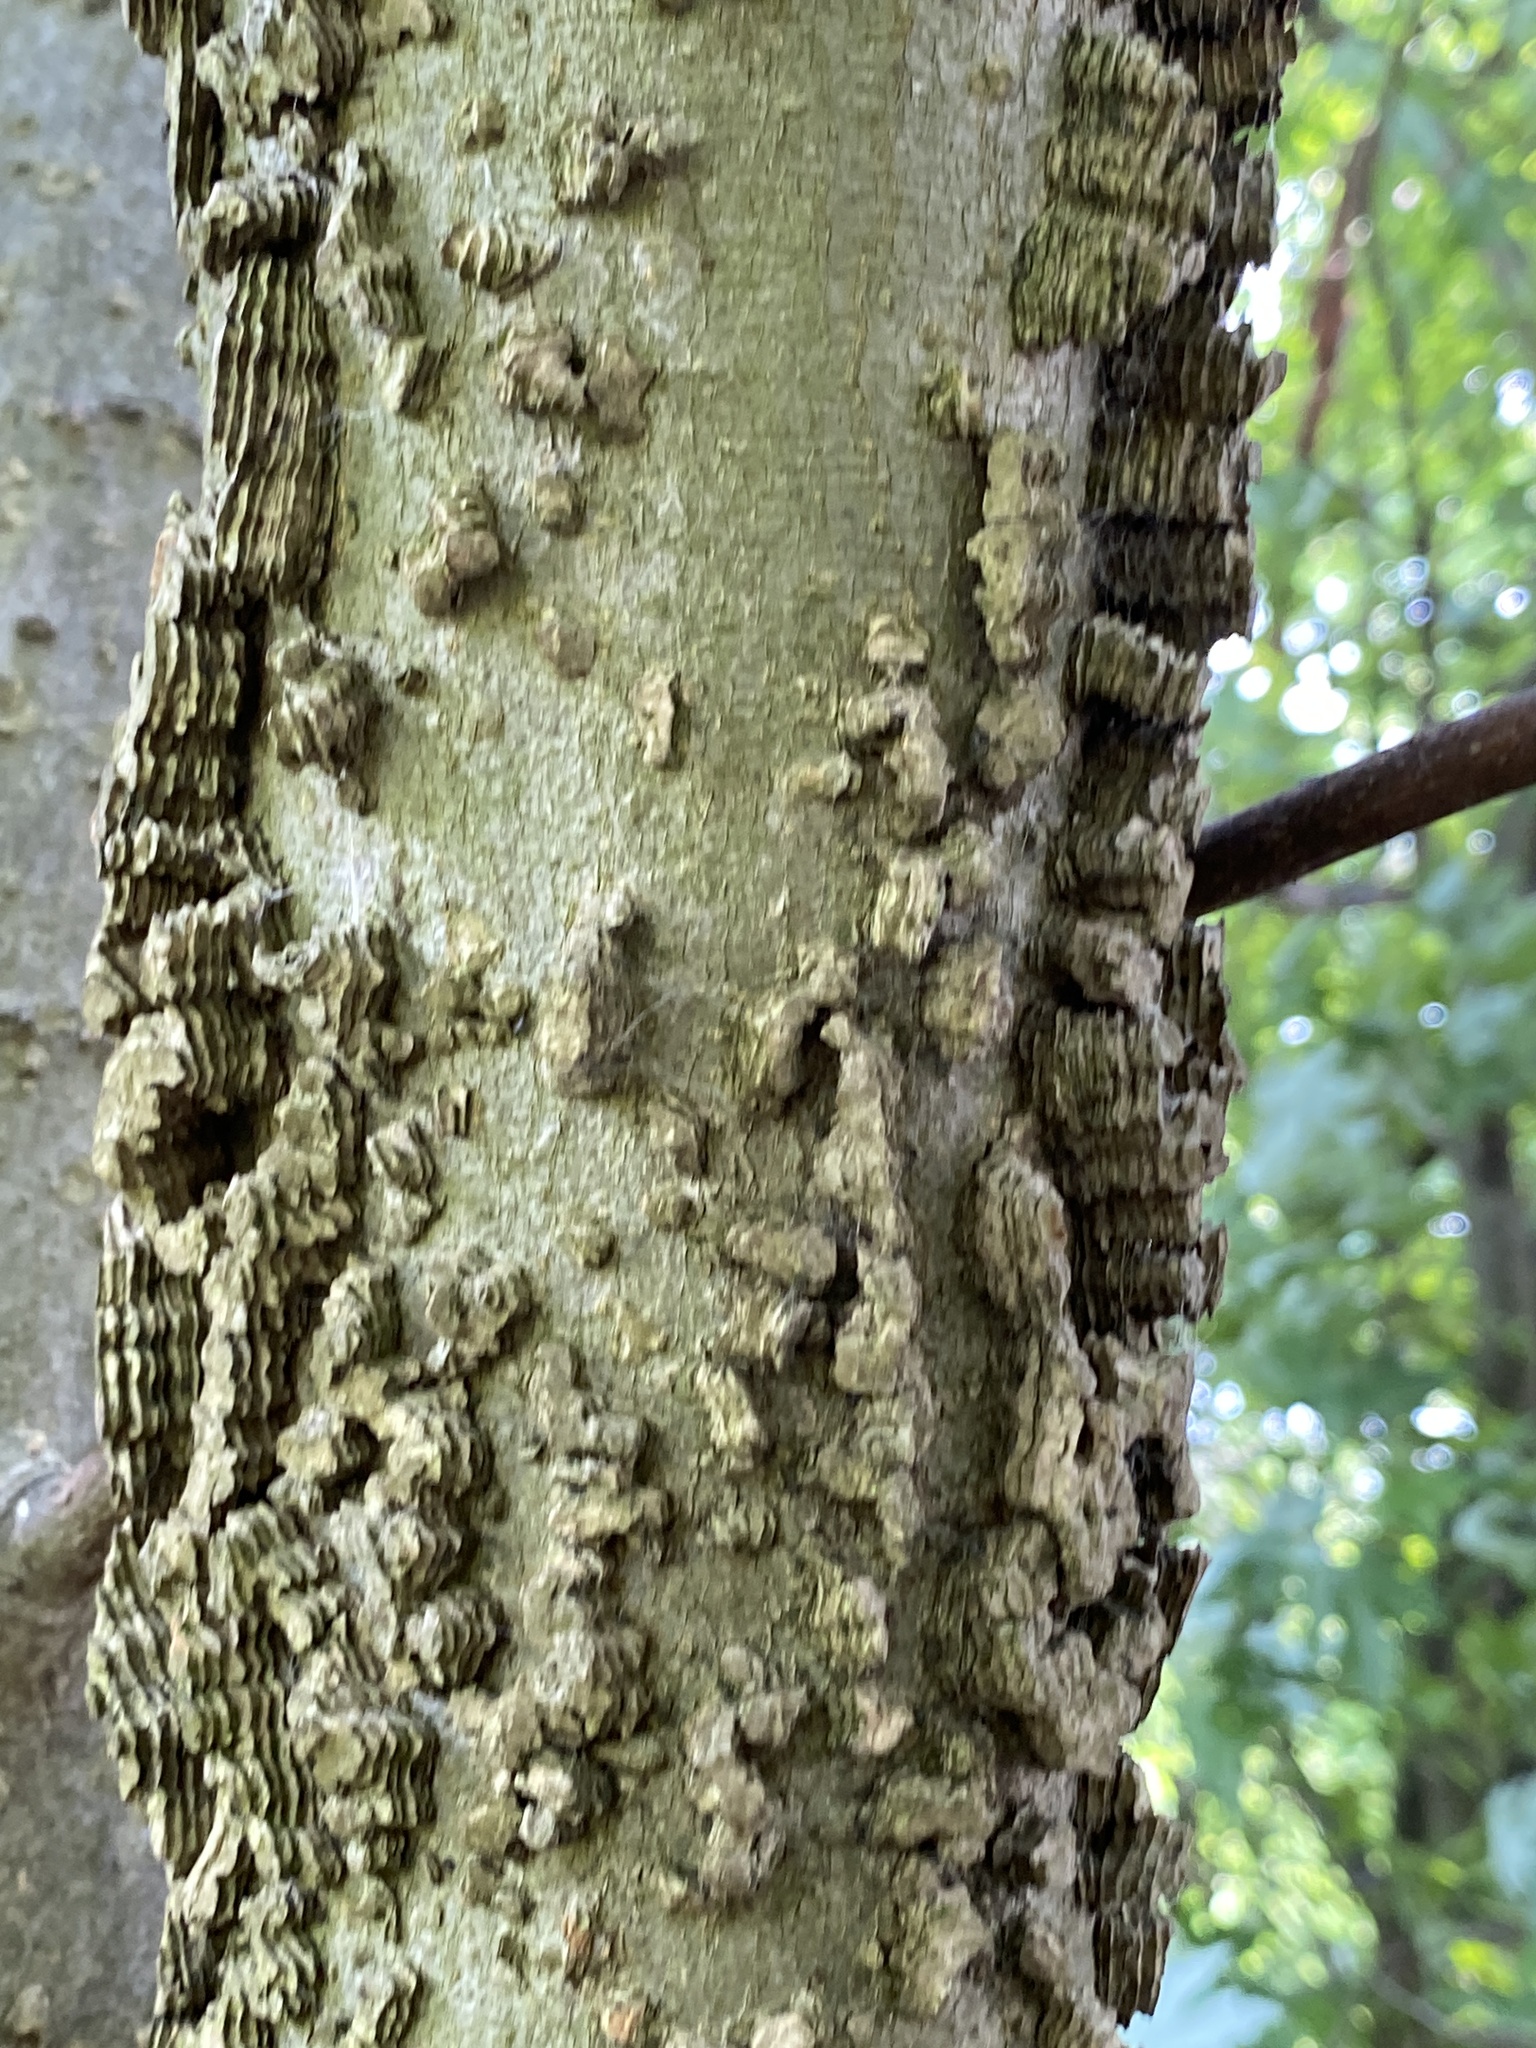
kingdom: Plantae
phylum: Tracheophyta
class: Magnoliopsida
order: Rosales
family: Cannabaceae
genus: Celtis
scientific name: Celtis occidentalis
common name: Common hackberry
